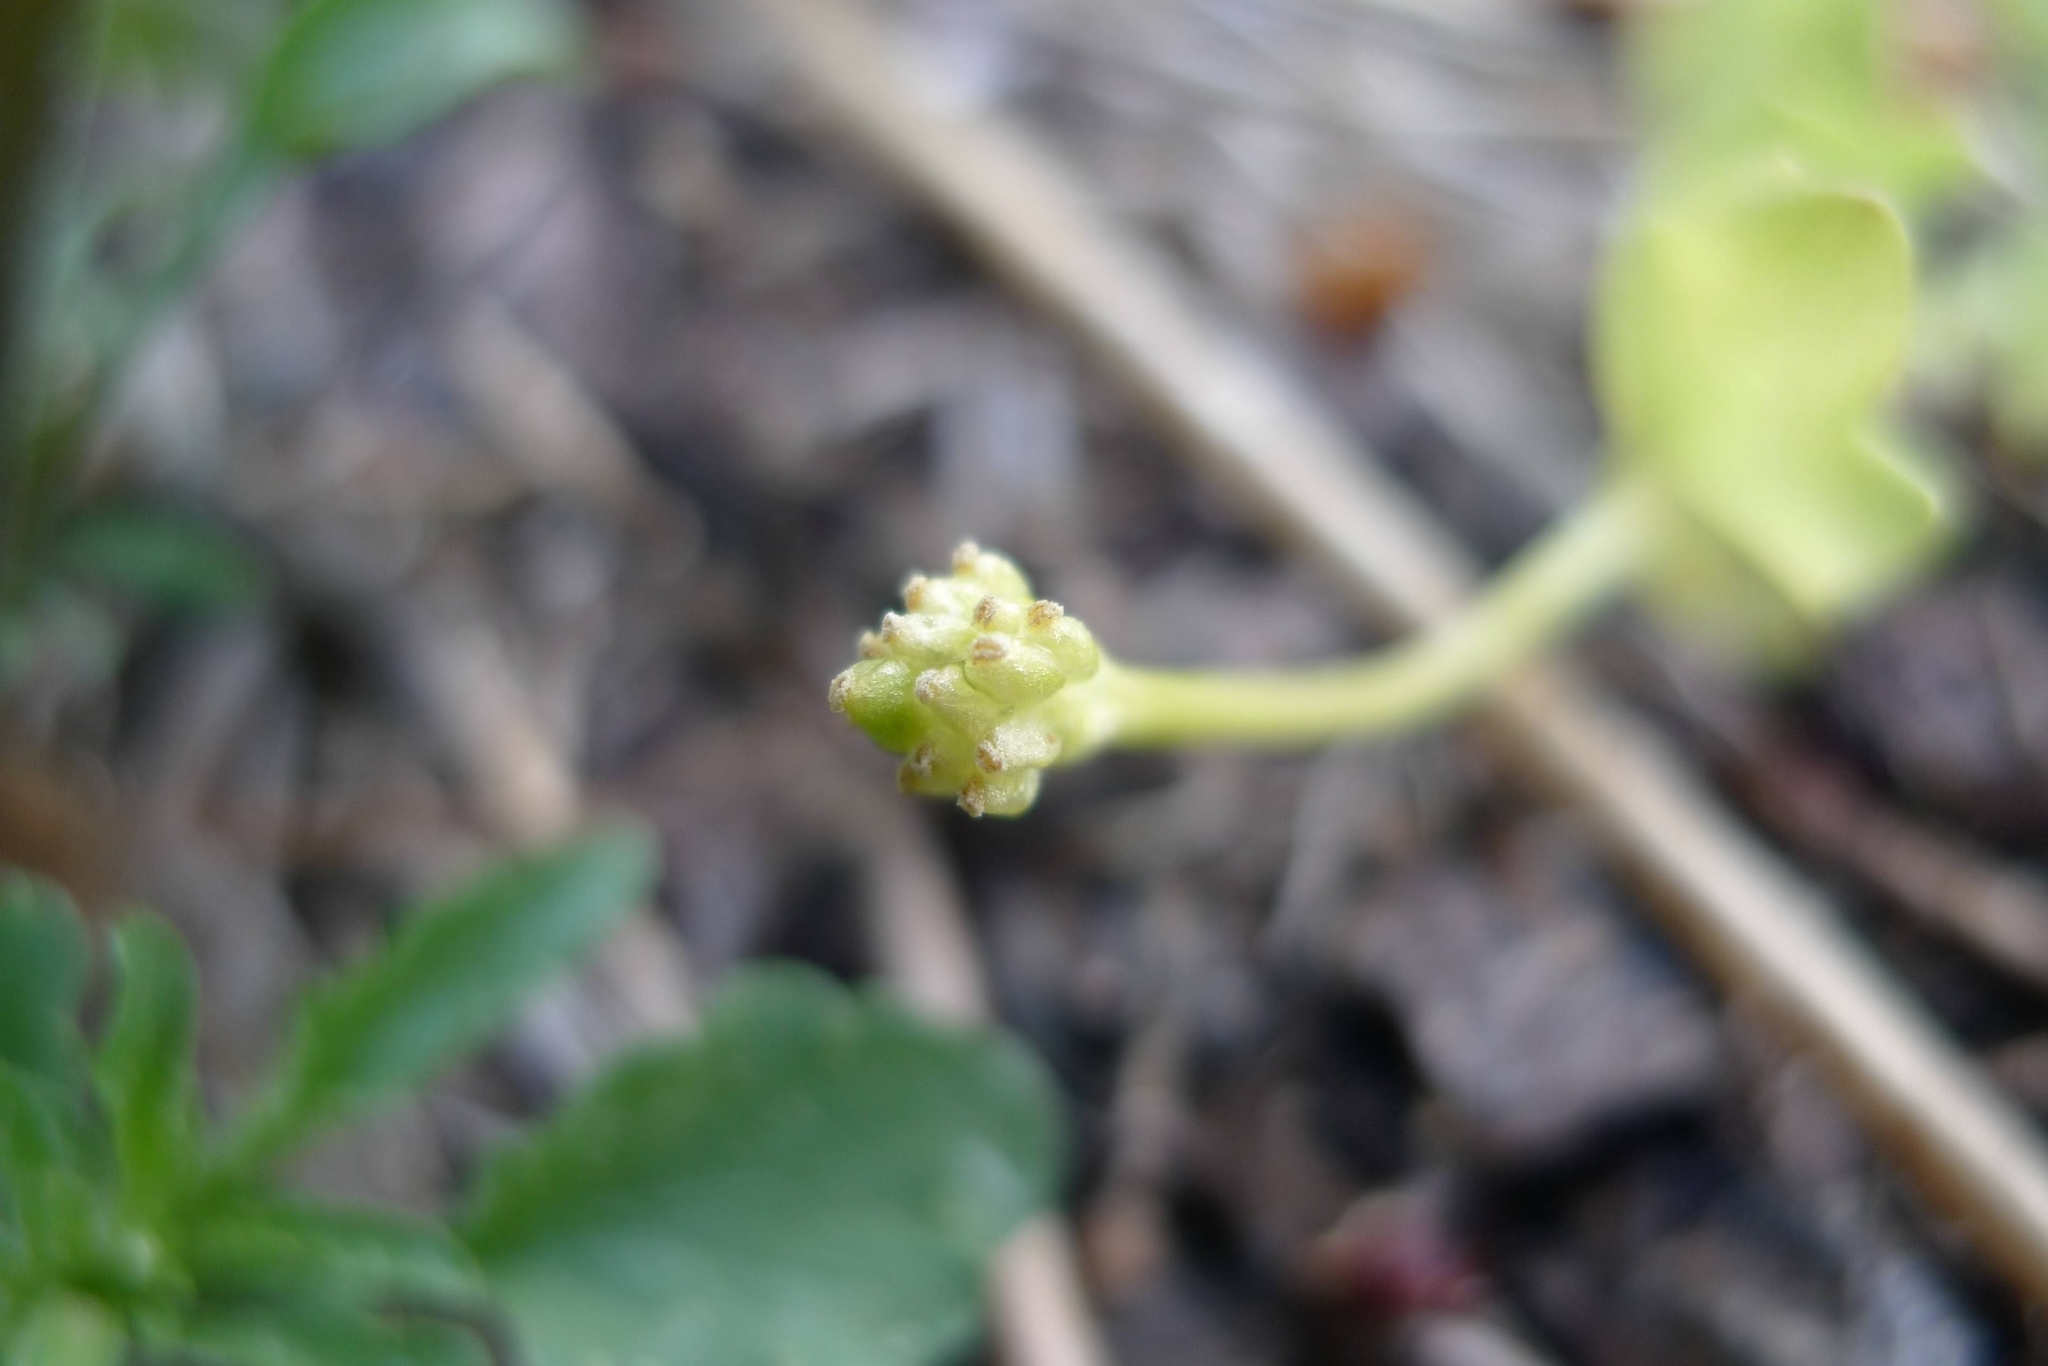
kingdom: Plantae
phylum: Tracheophyta
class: Magnoliopsida
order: Ranunculales
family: Ranunculaceae
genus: Ficaria
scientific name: Ficaria verna
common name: Lesser celandine
